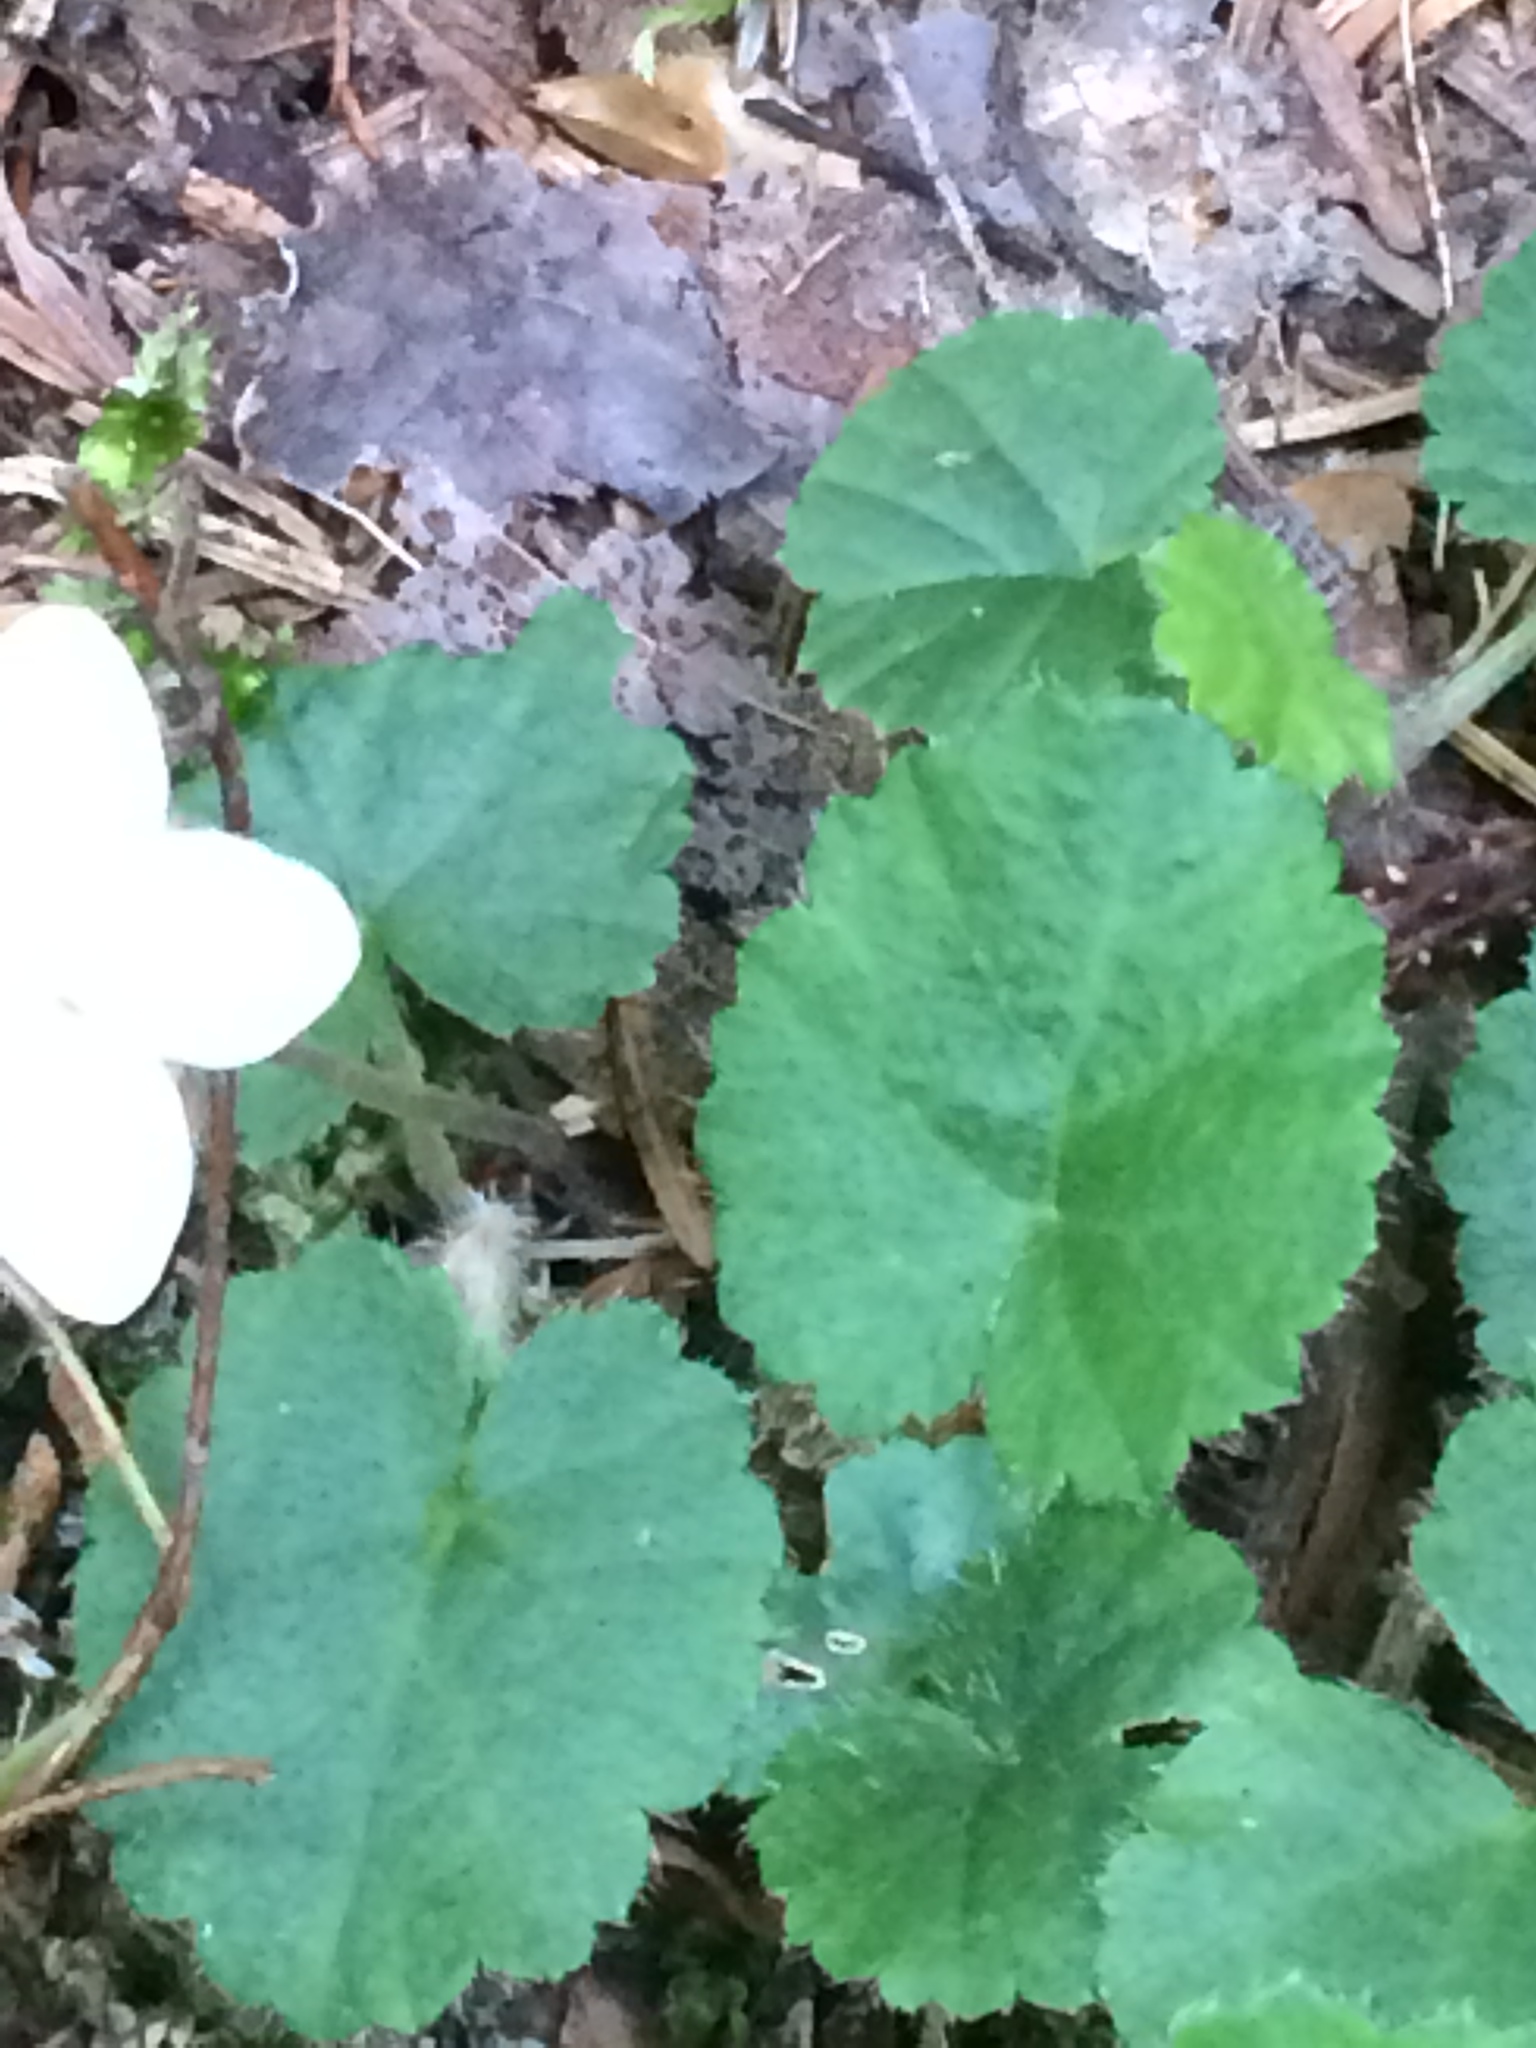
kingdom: Plantae
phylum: Tracheophyta
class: Magnoliopsida
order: Rosales
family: Rosaceae
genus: Dalibarda
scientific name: Dalibarda repens
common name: Dewdrop
